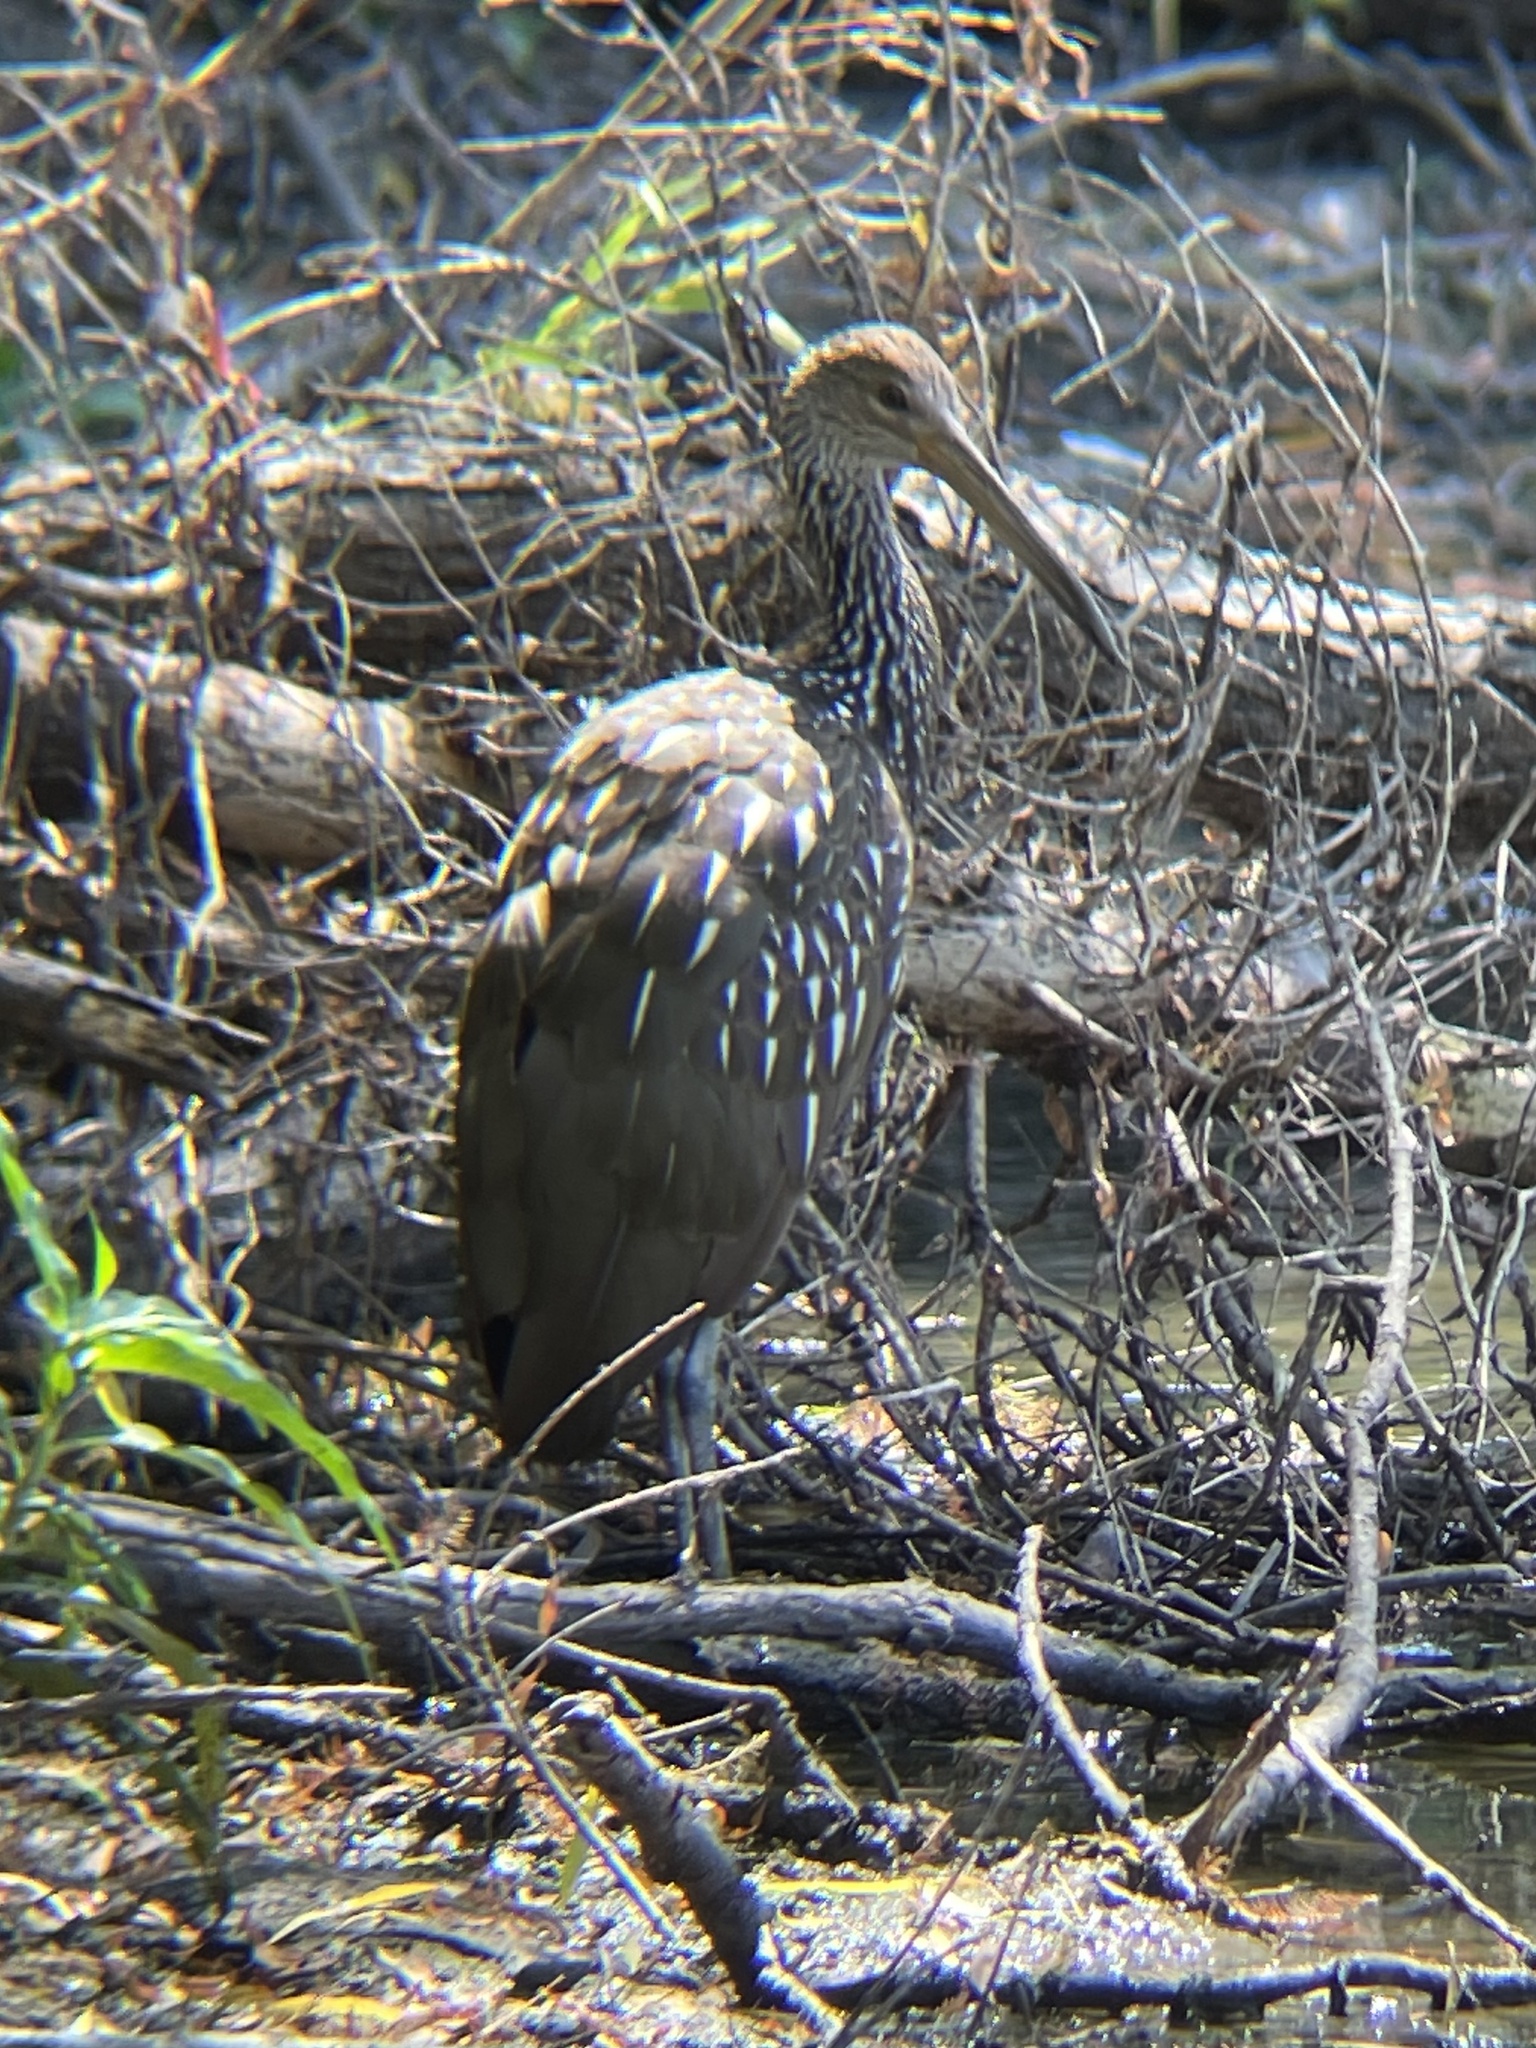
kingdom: Animalia
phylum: Chordata
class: Aves
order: Gruiformes
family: Aramidae
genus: Aramus
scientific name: Aramus guarauna
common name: Limpkin
